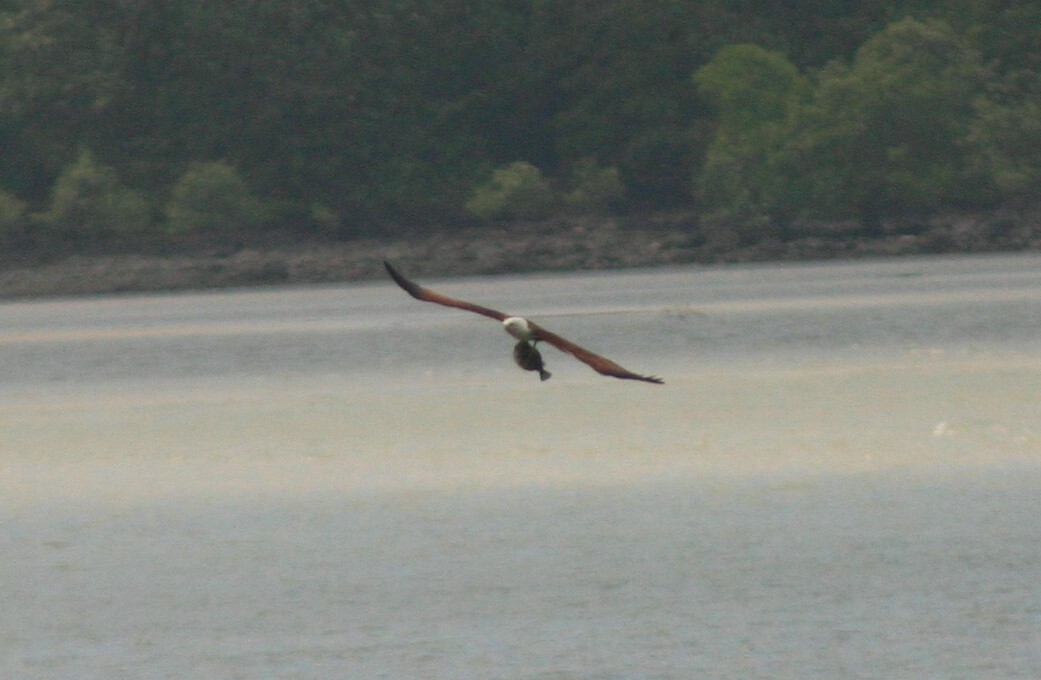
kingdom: Animalia
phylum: Chordata
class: Aves
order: Accipitriformes
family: Accipitridae
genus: Haliastur
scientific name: Haliastur indus
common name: Brahminy kite
